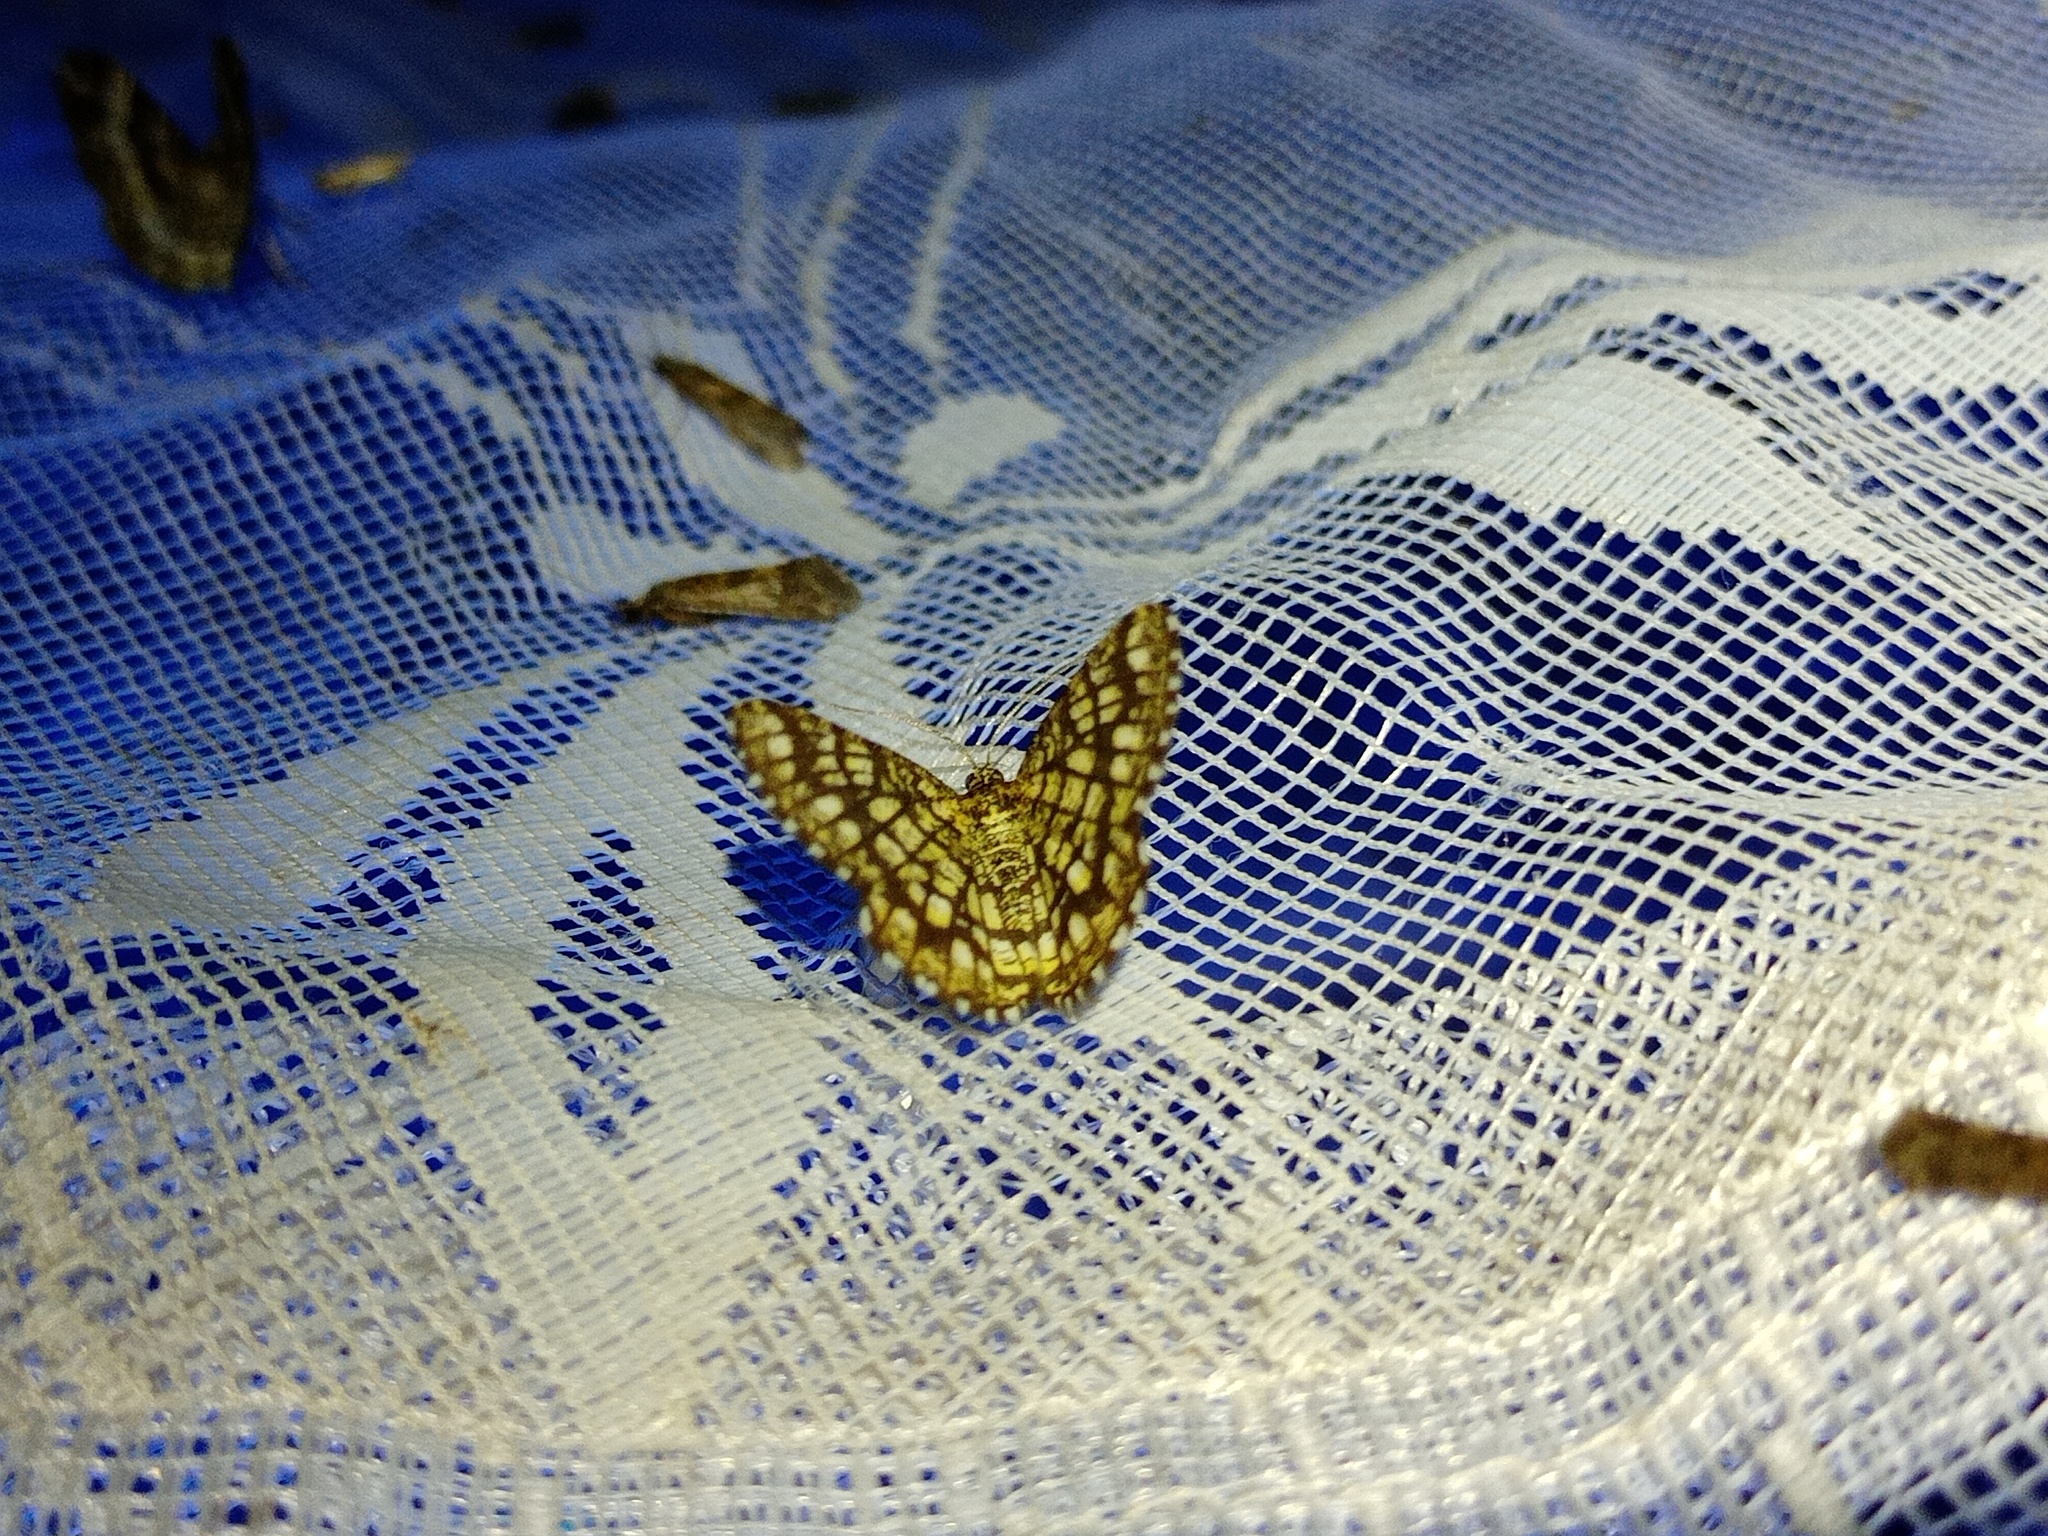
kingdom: Animalia
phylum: Arthropoda
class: Insecta
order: Lepidoptera
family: Geometridae
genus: Chiasmia
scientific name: Chiasmia clathrata
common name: Latticed heath
